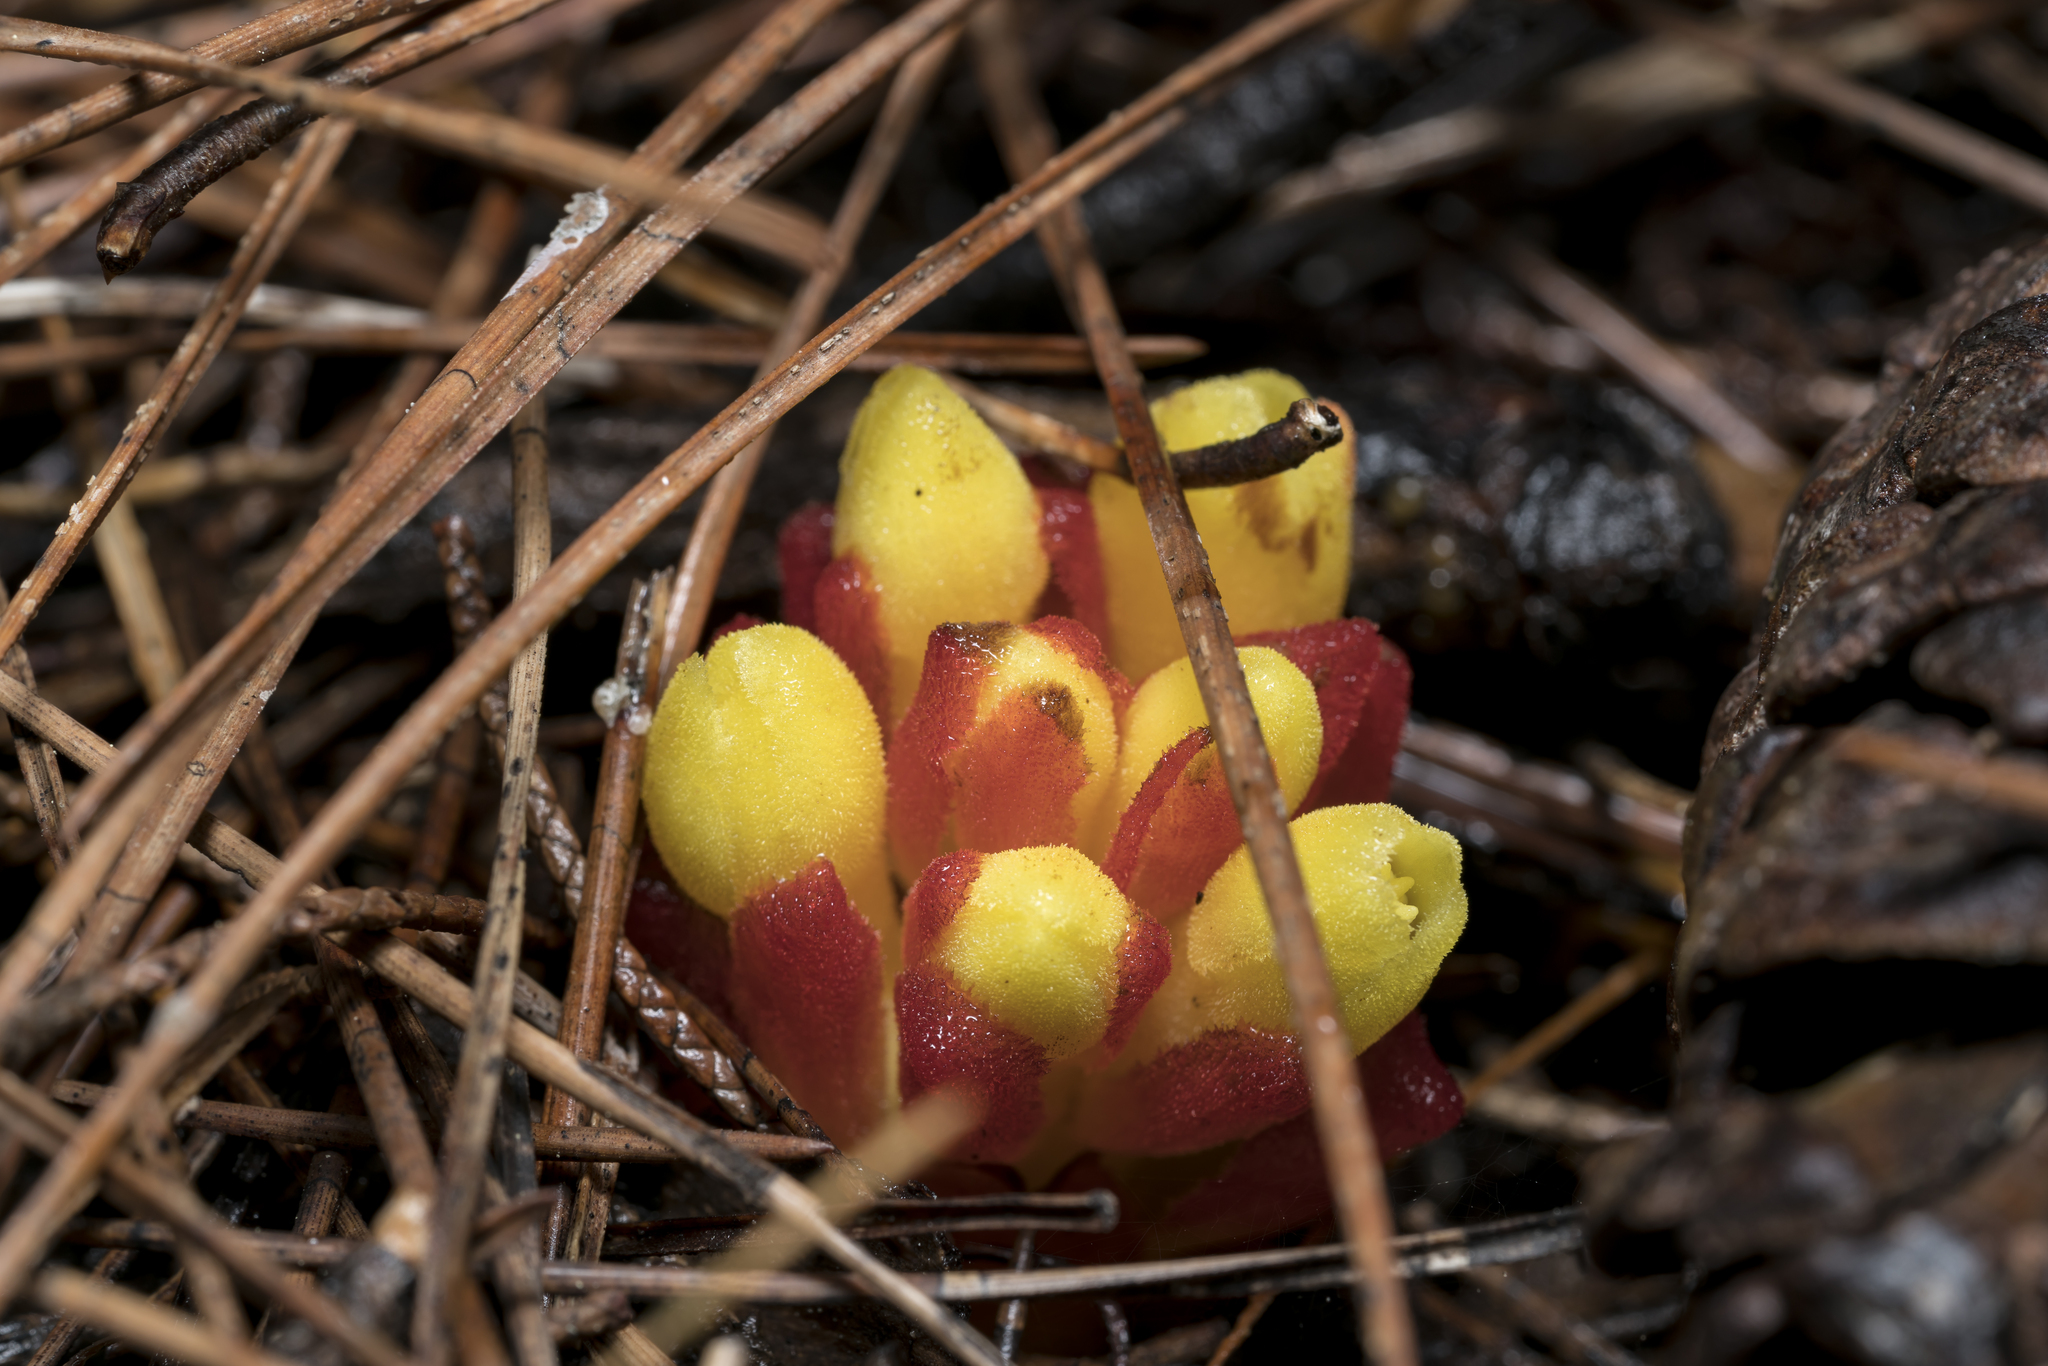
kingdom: Plantae
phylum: Tracheophyta
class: Magnoliopsida
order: Malvales
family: Cytinaceae
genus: Cytinus
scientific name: Cytinus hypocistis
